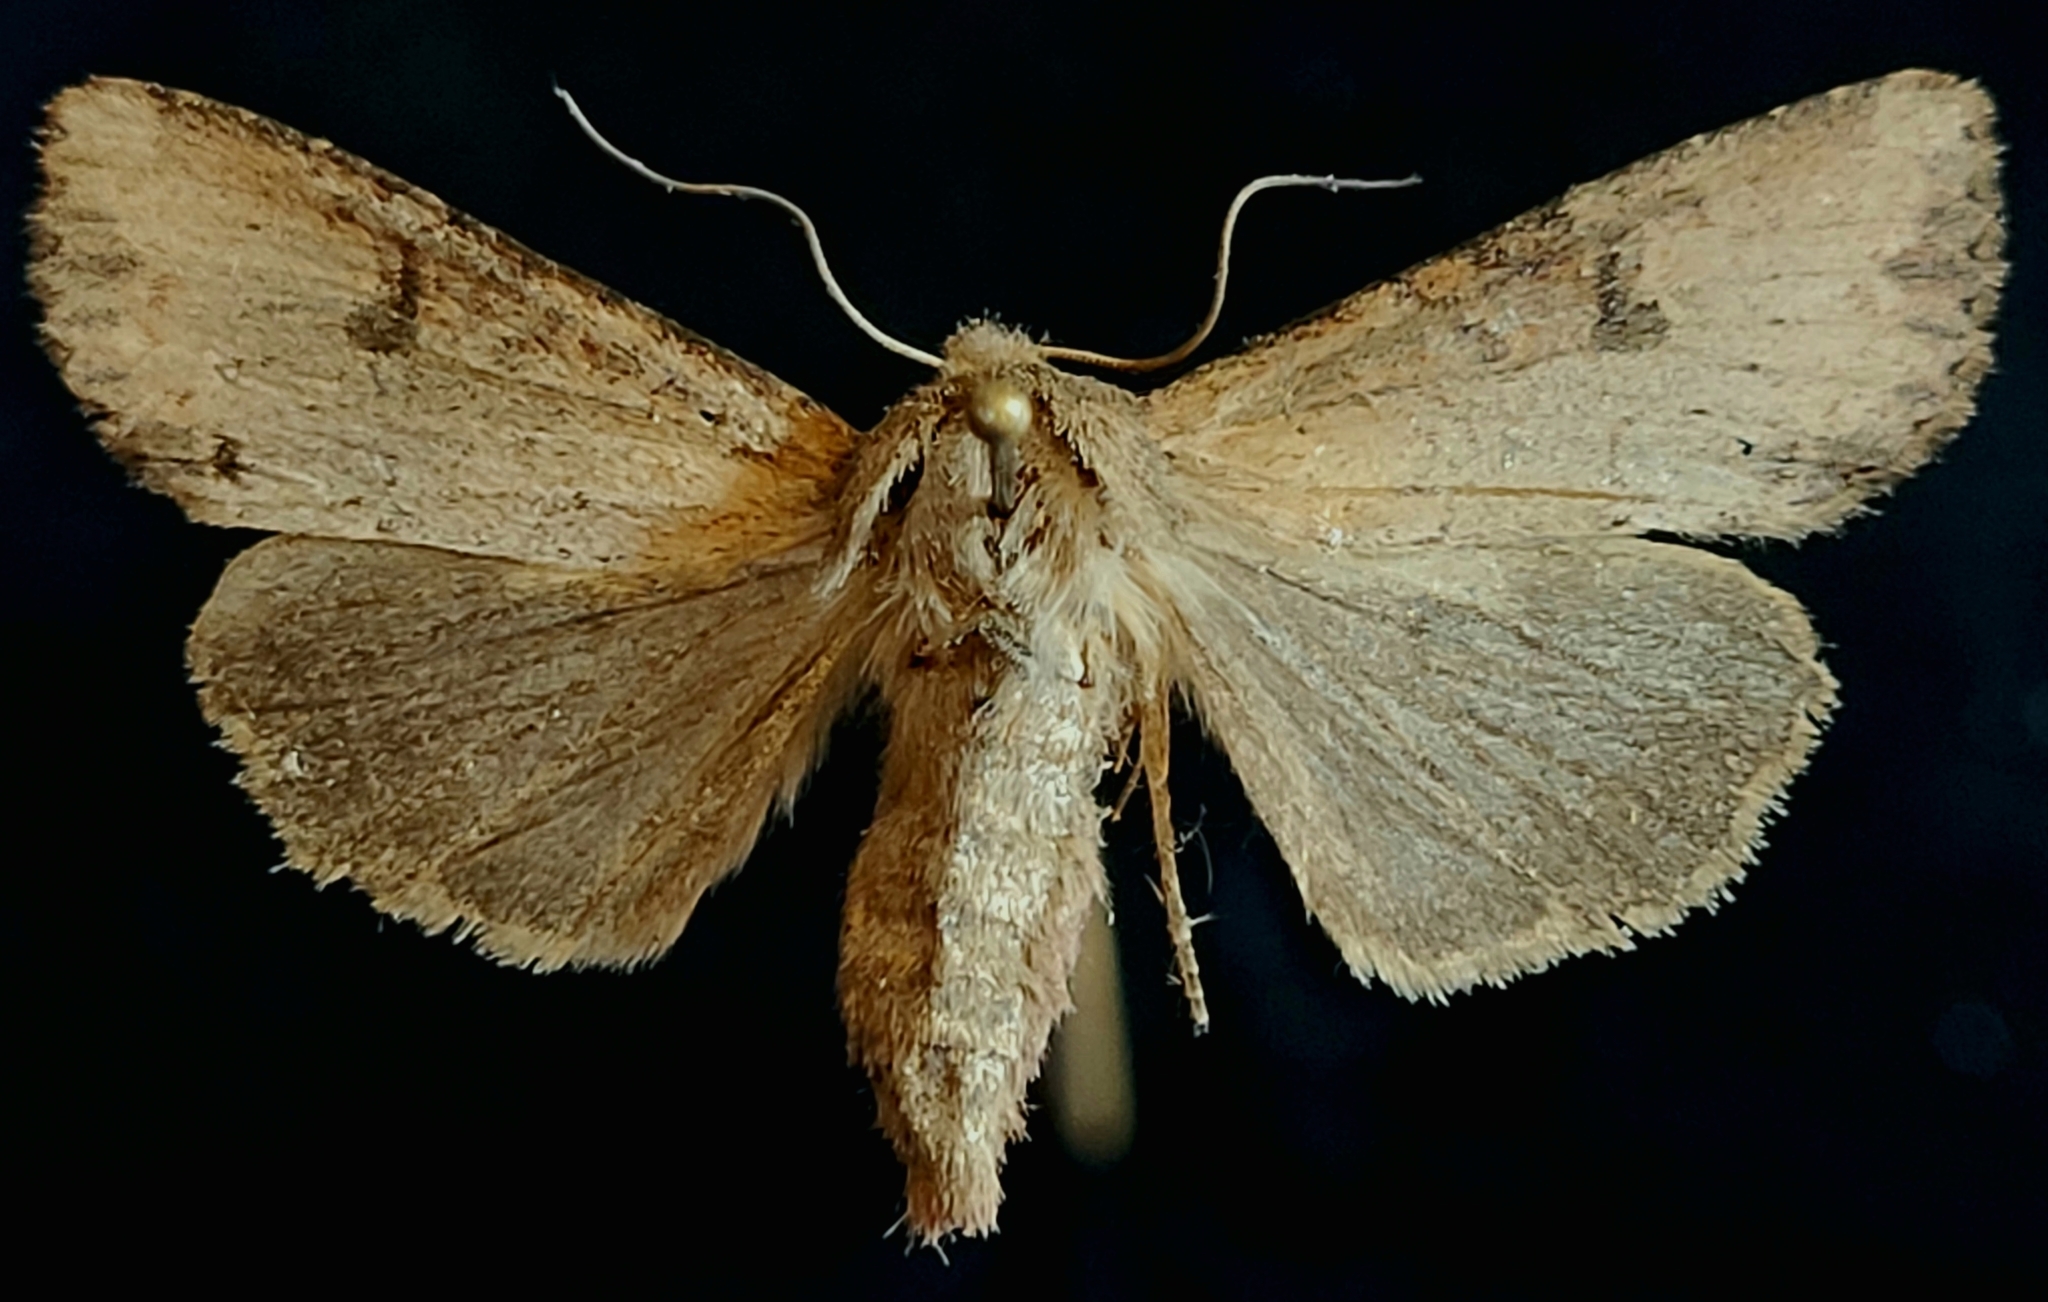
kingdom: Animalia
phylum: Arthropoda
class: Insecta
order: Lepidoptera
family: Noctuidae
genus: Apamea
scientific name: Apamea alia
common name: Fox apamea
